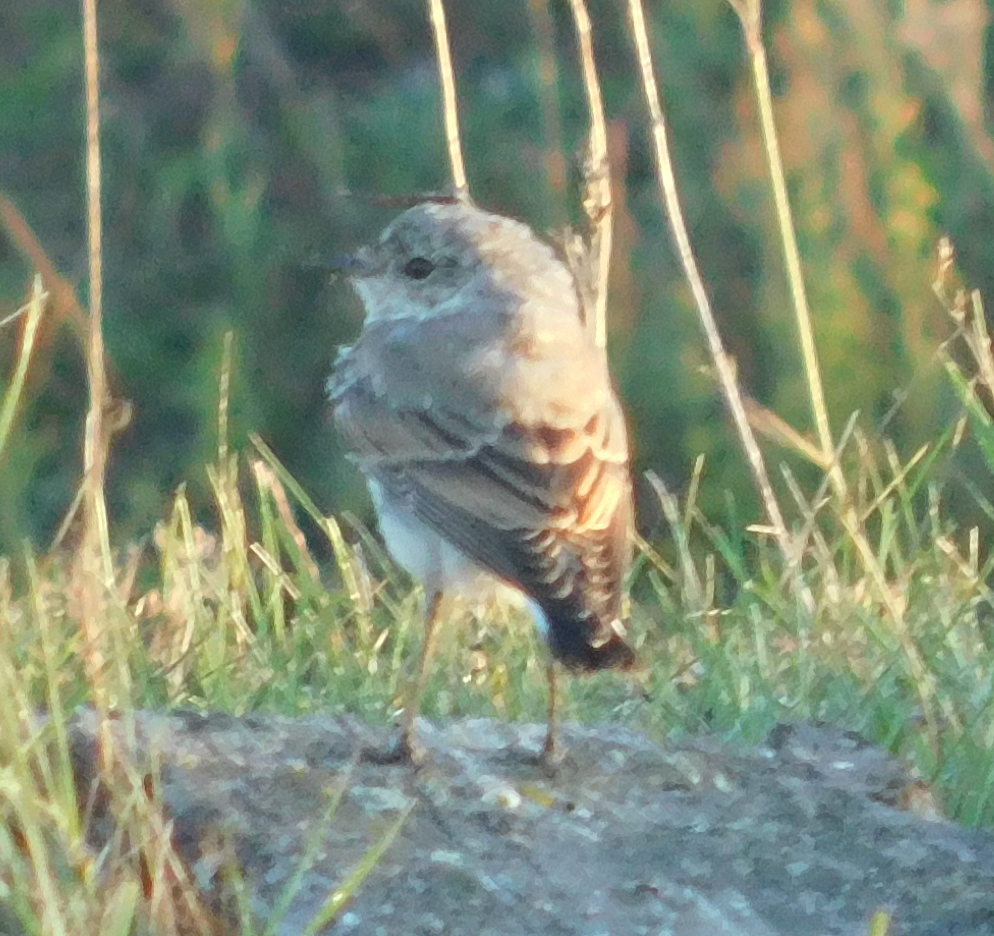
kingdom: Animalia
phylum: Chordata
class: Aves
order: Passeriformes
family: Muscicapidae
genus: Oenanthe
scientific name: Oenanthe oenanthe
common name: Northern wheatear
